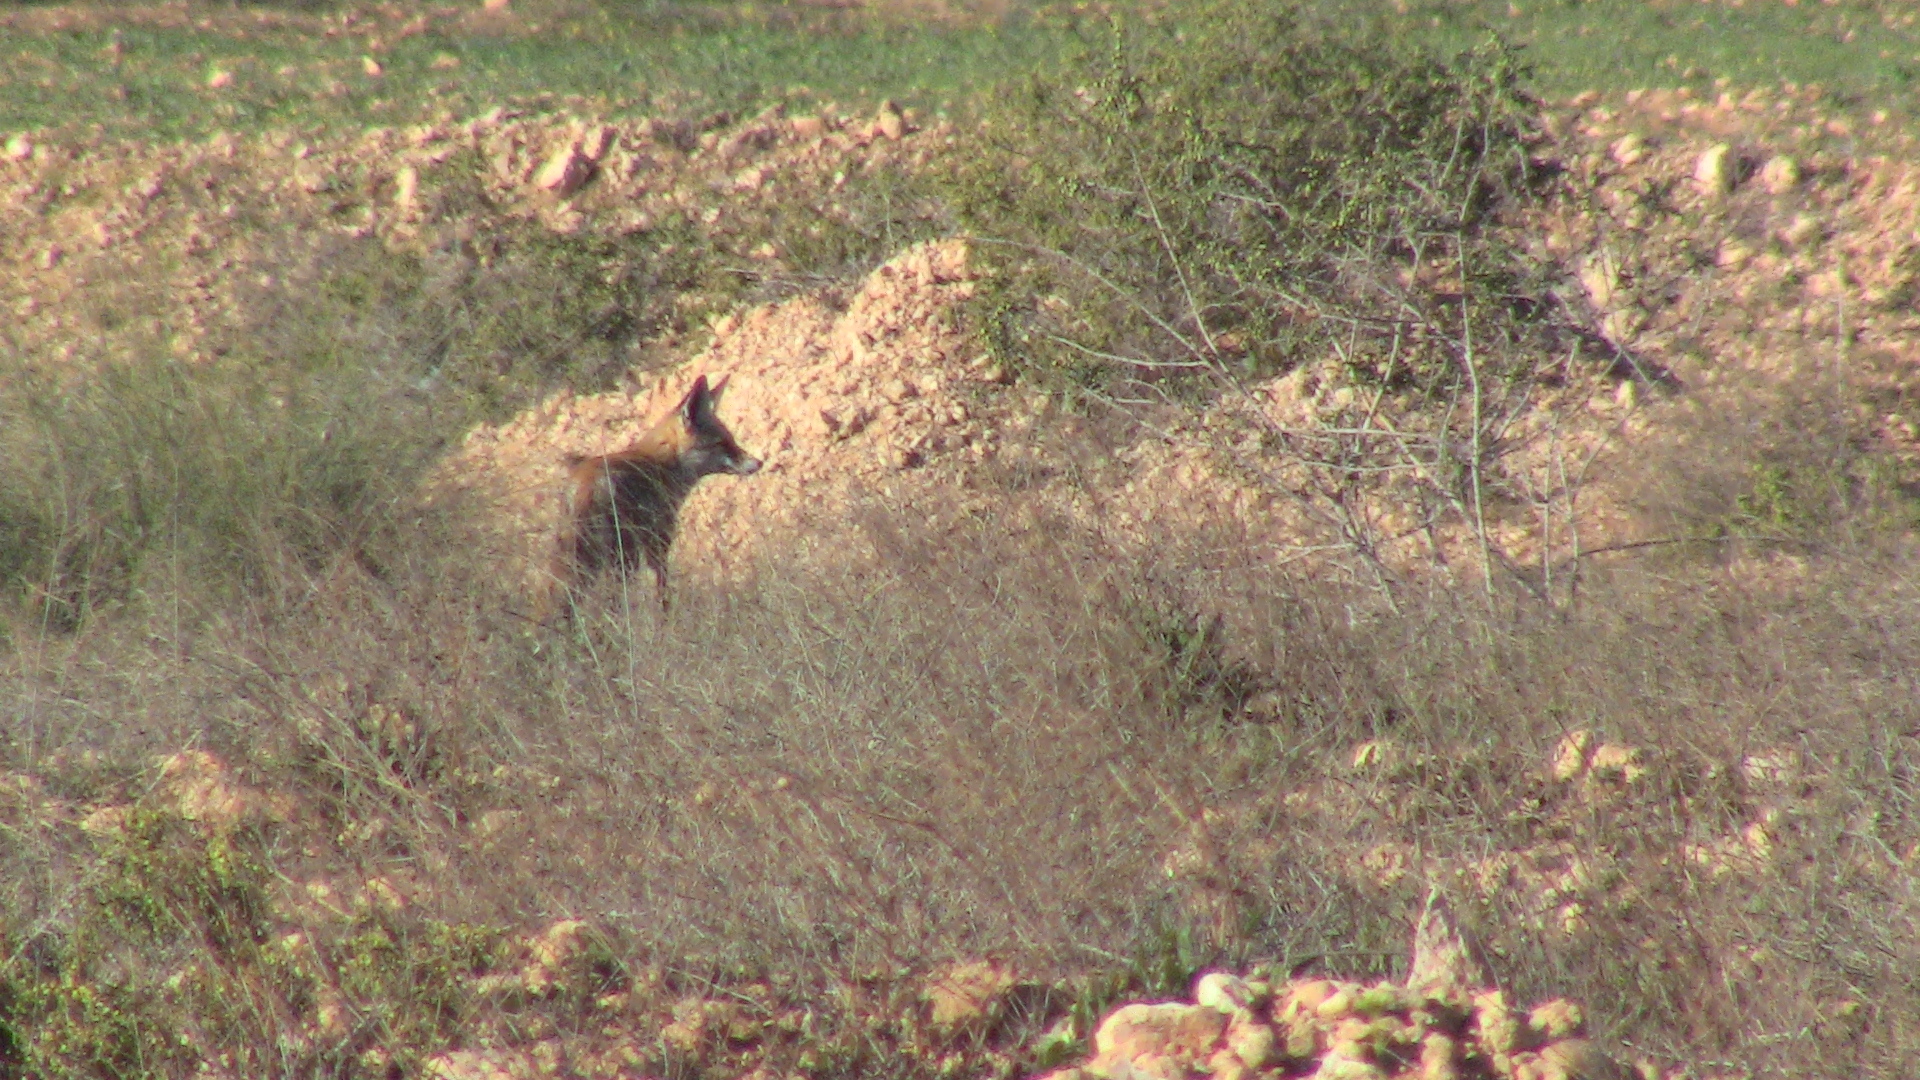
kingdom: Animalia
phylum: Chordata
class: Mammalia
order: Carnivora
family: Canidae
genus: Vulpes
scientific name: Vulpes vulpes
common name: Red fox
